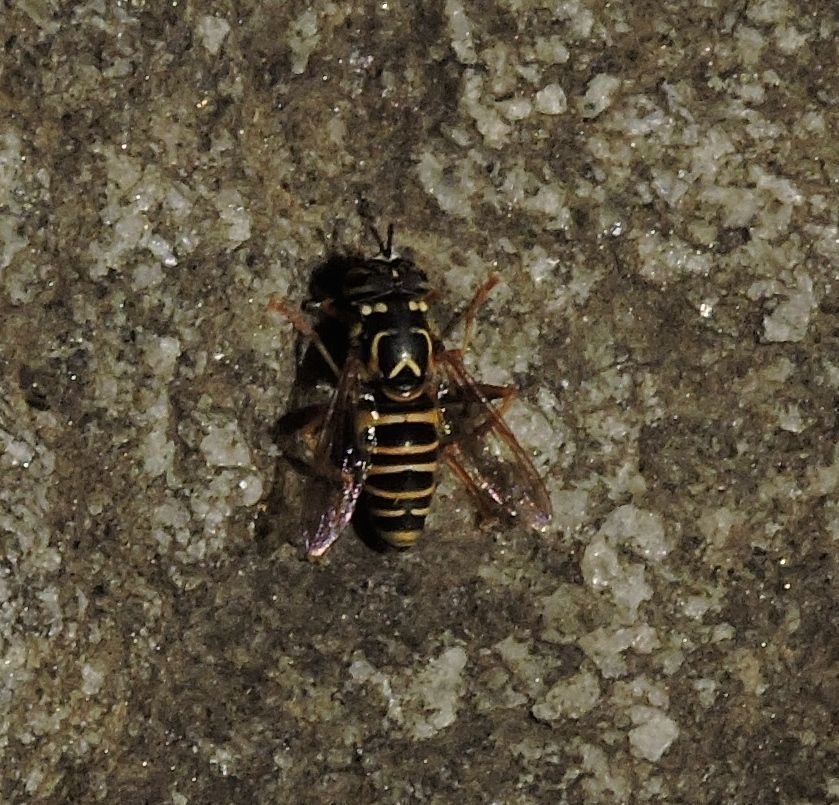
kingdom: Animalia
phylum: Arthropoda
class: Insecta
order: Diptera
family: Syrphidae
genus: Spilomyia
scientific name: Spilomyia longicornis
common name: Eastern hornet fly
